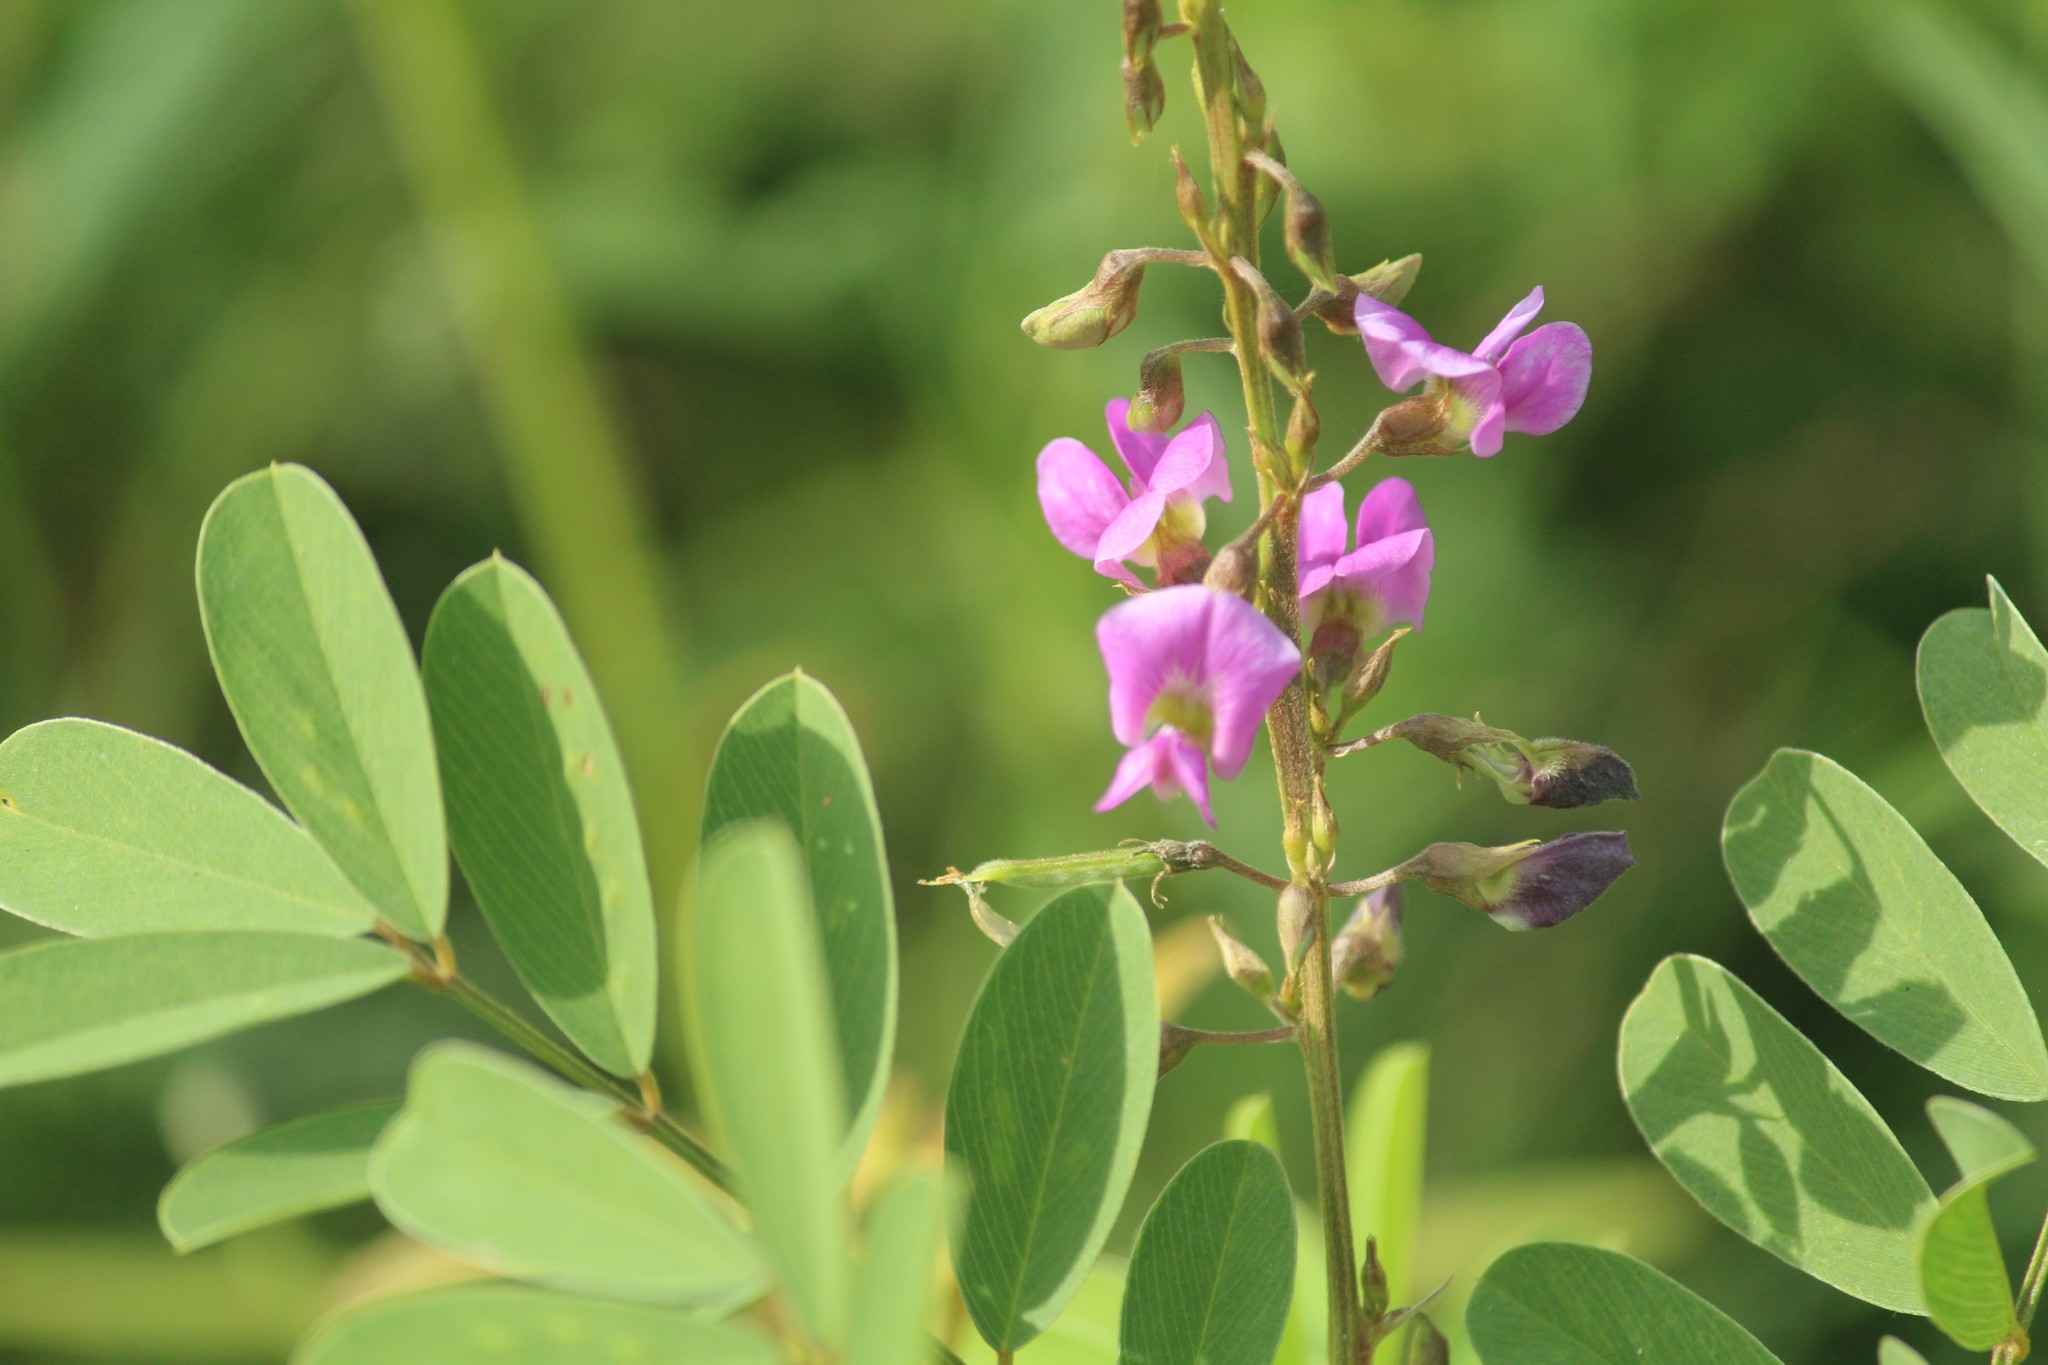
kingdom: Plantae
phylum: Tracheophyta
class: Magnoliopsida
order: Fabales
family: Fabaceae
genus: Tephrosia
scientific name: Tephrosia purpurea
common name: Fishpoison
